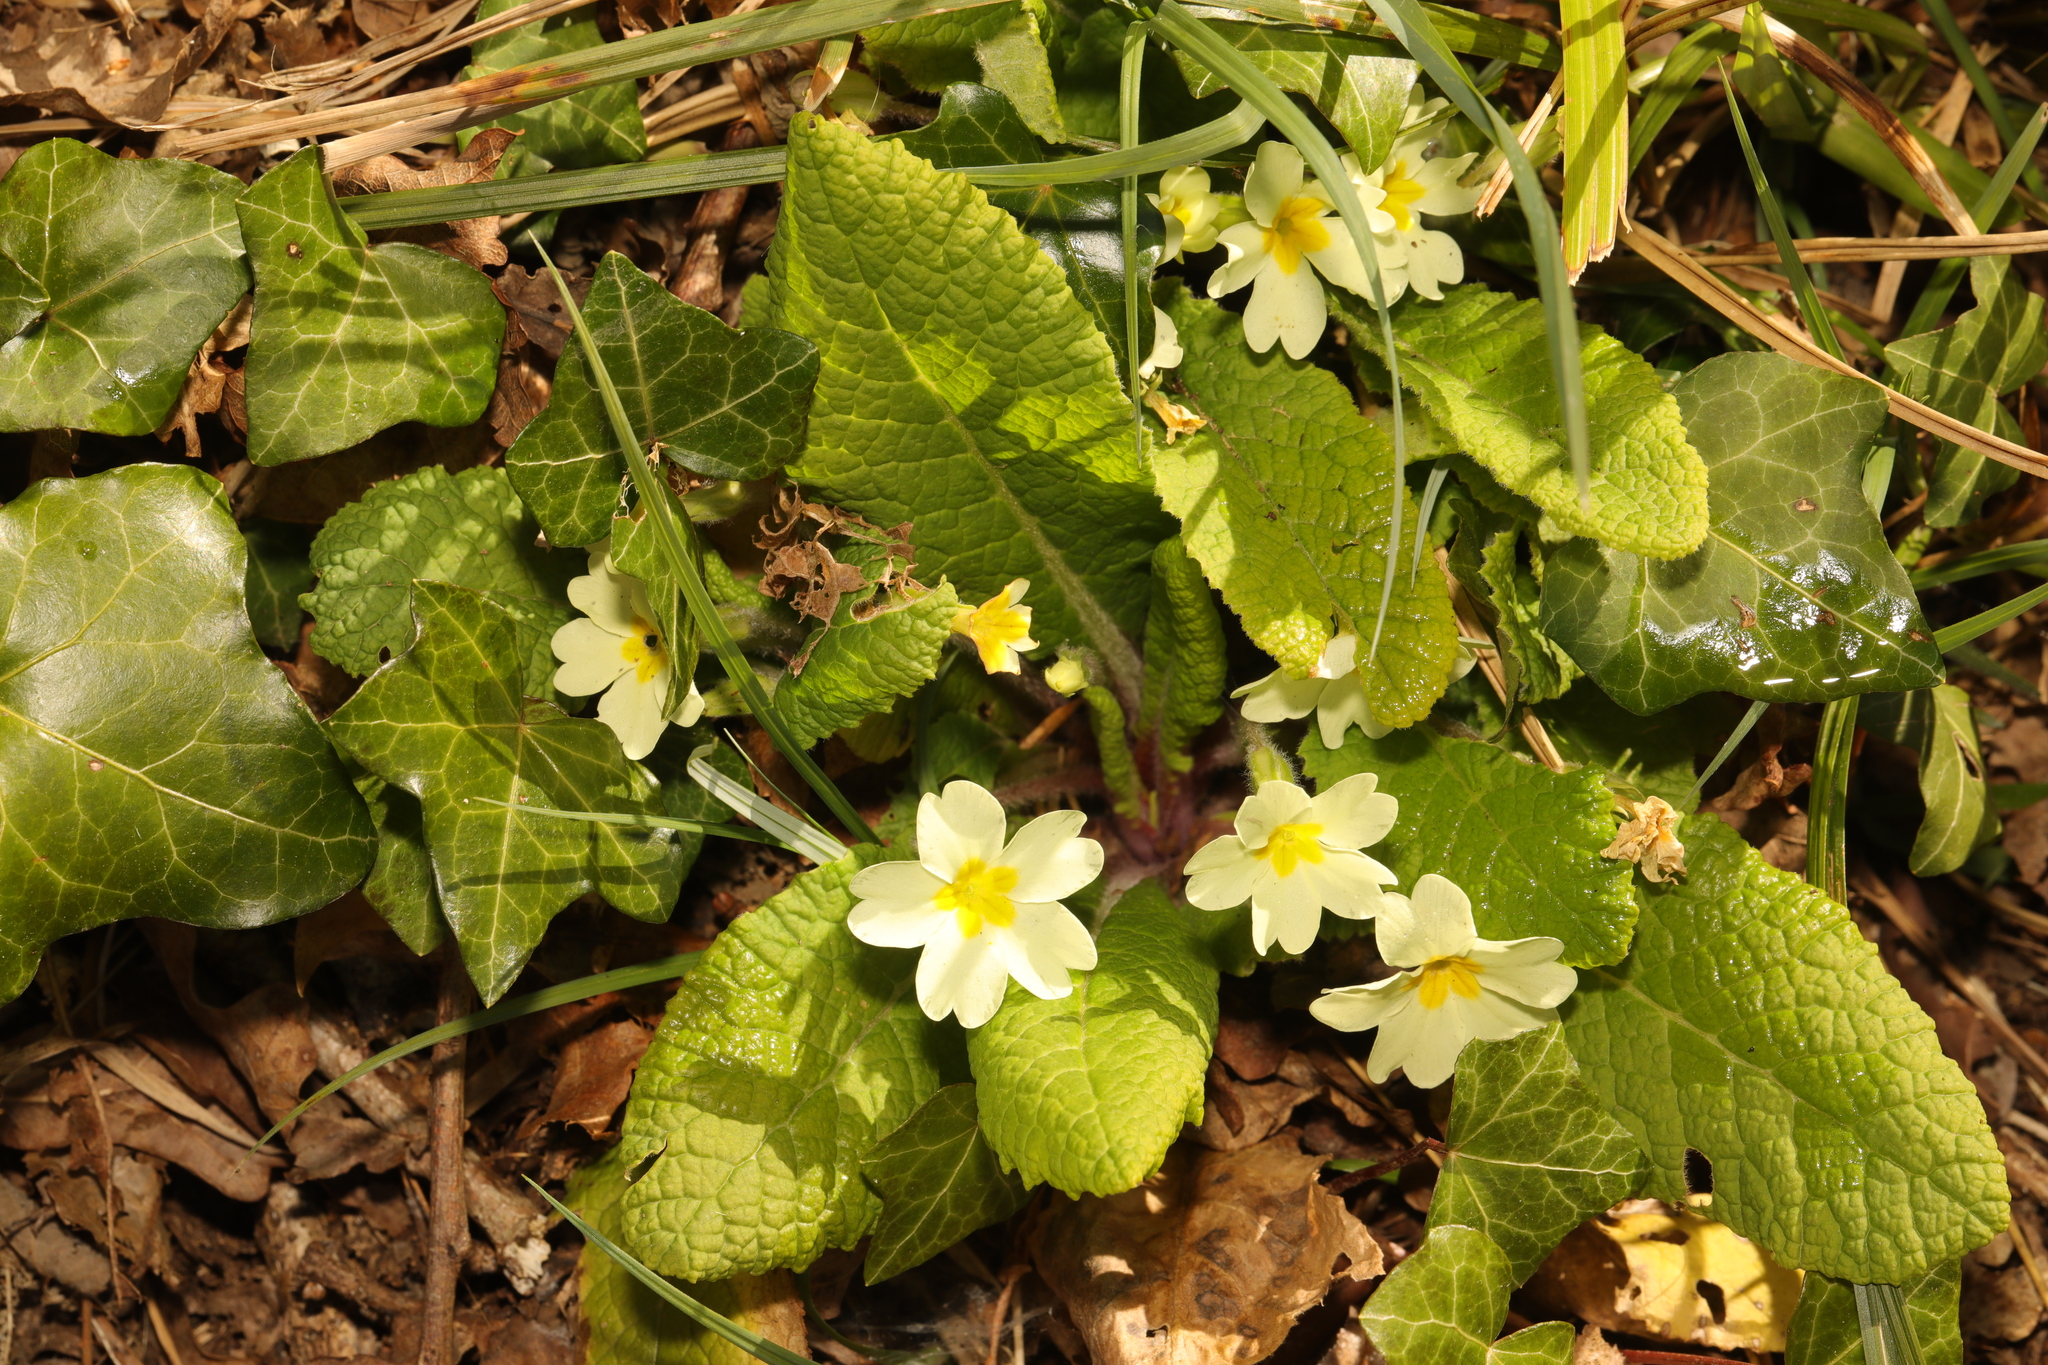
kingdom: Plantae
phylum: Tracheophyta
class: Magnoliopsida
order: Ericales
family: Primulaceae
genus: Primula
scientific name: Primula vulgaris
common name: Primrose
